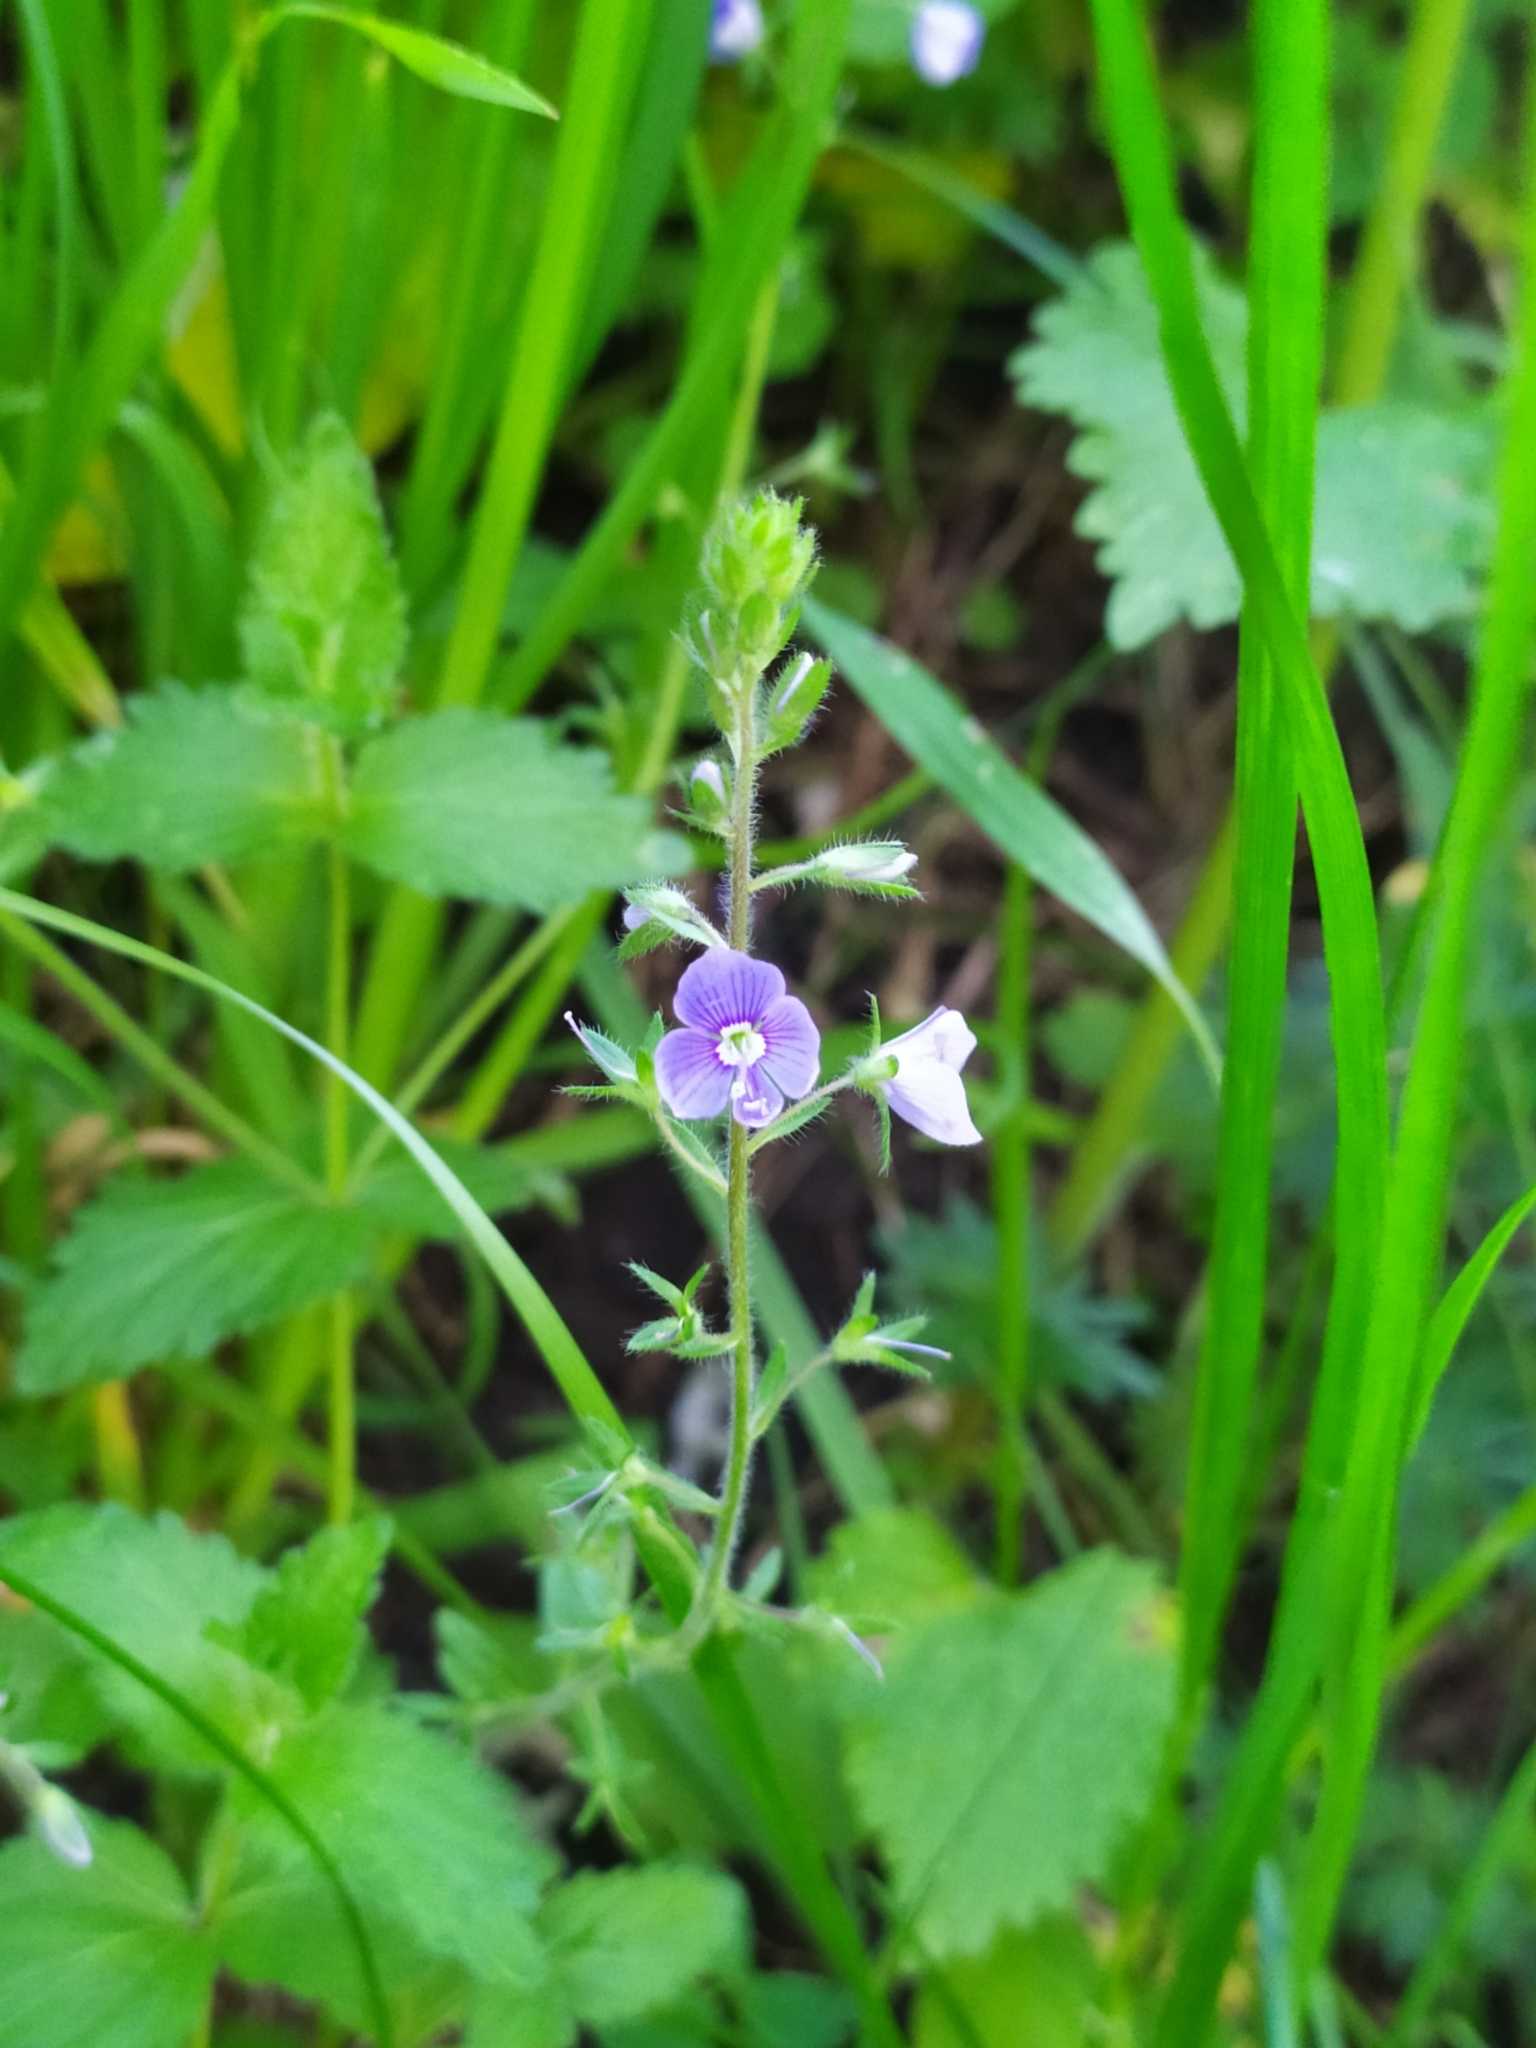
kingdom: Plantae
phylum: Tracheophyta
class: Magnoliopsida
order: Lamiales
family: Plantaginaceae
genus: Veronica
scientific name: Veronica chamaedrys
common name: Germander speedwell
